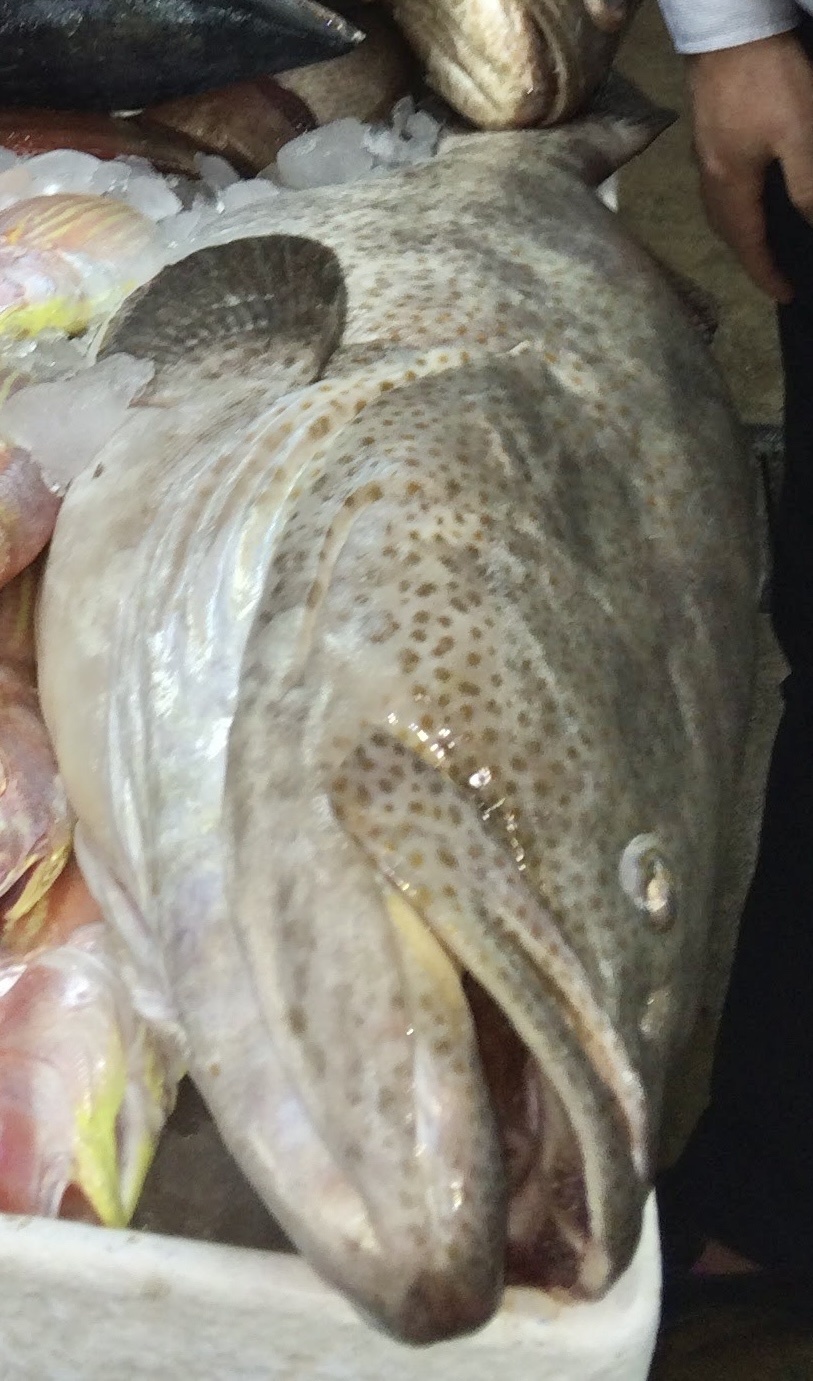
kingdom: Animalia
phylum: Chordata
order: Perciformes
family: Serranidae
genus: Epinephelus
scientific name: Epinephelus coioides
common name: Orange-spotted grouper
